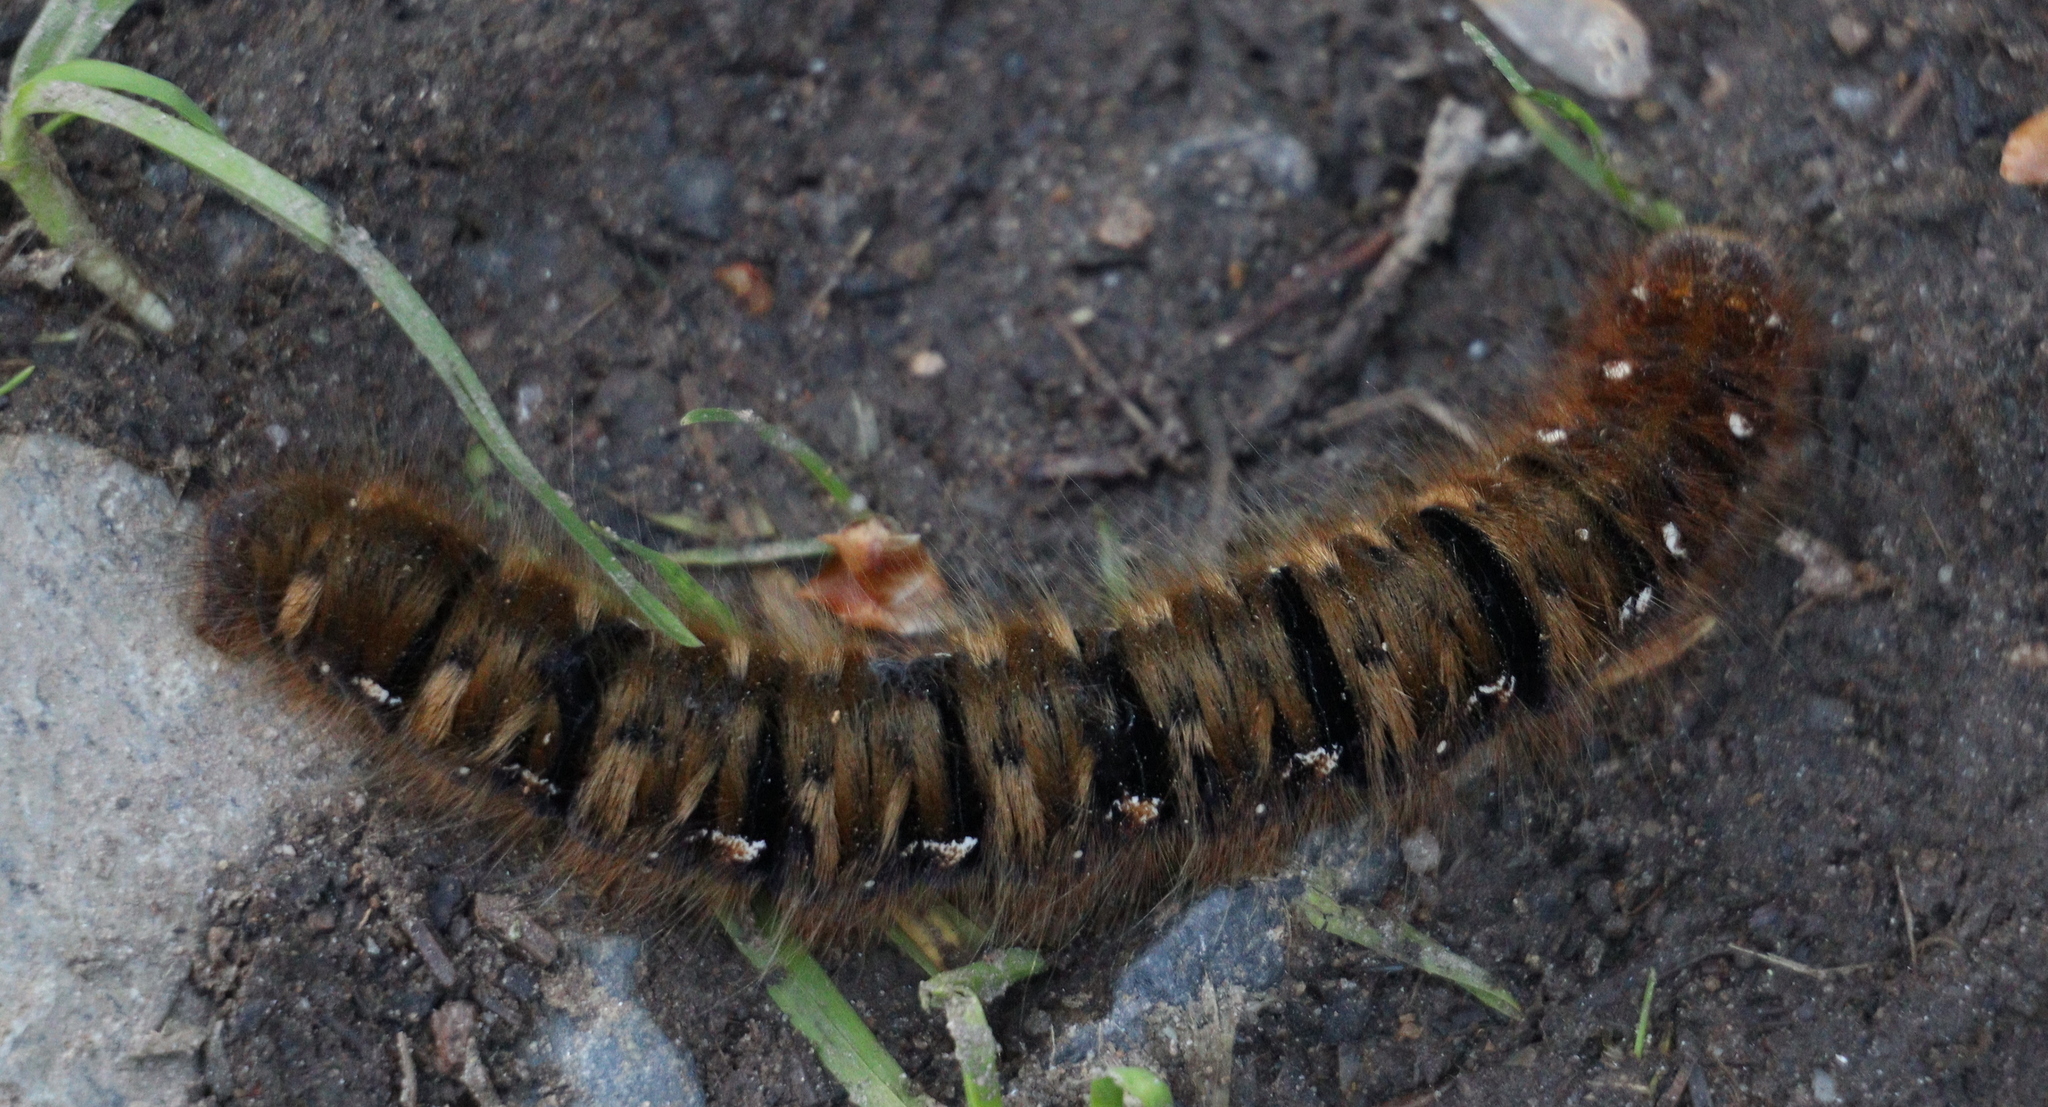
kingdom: Animalia
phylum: Arthropoda
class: Insecta
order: Lepidoptera
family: Lasiocampidae
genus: Lasiocampa
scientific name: Lasiocampa quercus
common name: Oak eggar
